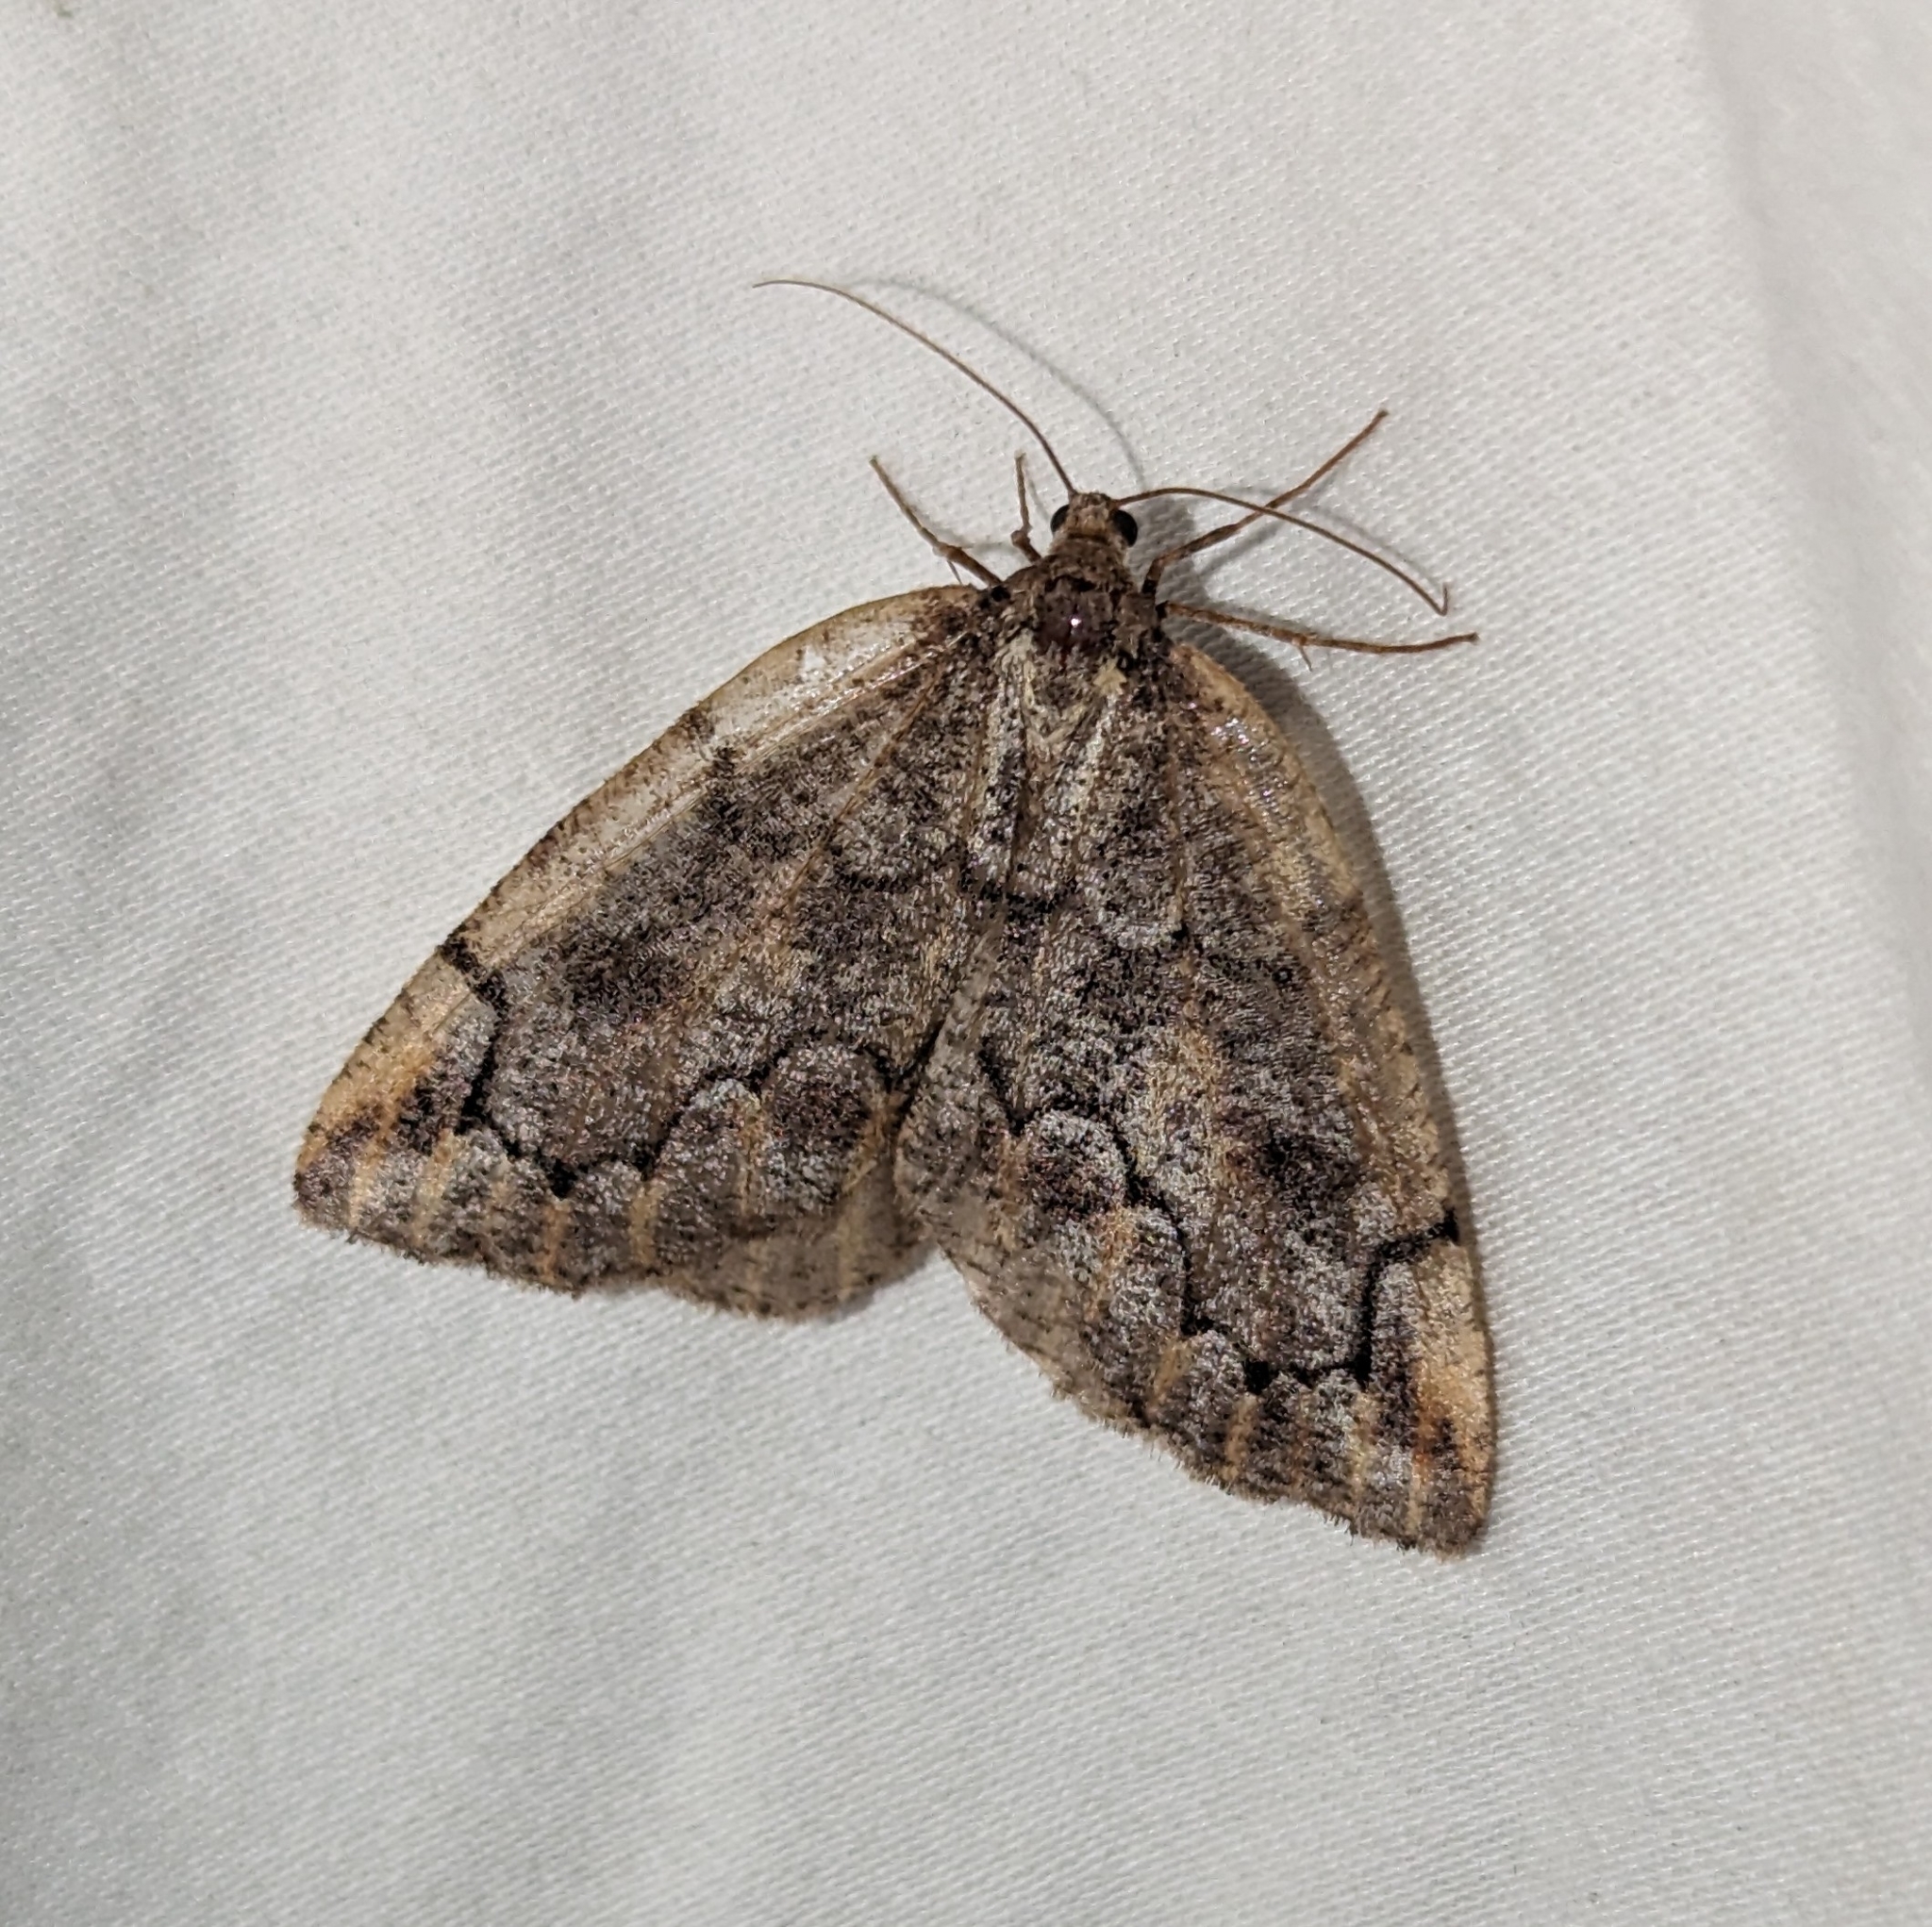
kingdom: Animalia
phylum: Arthropoda
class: Insecta
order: Lepidoptera
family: Geometridae
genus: Spodolepis
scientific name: Spodolepis danbyi
